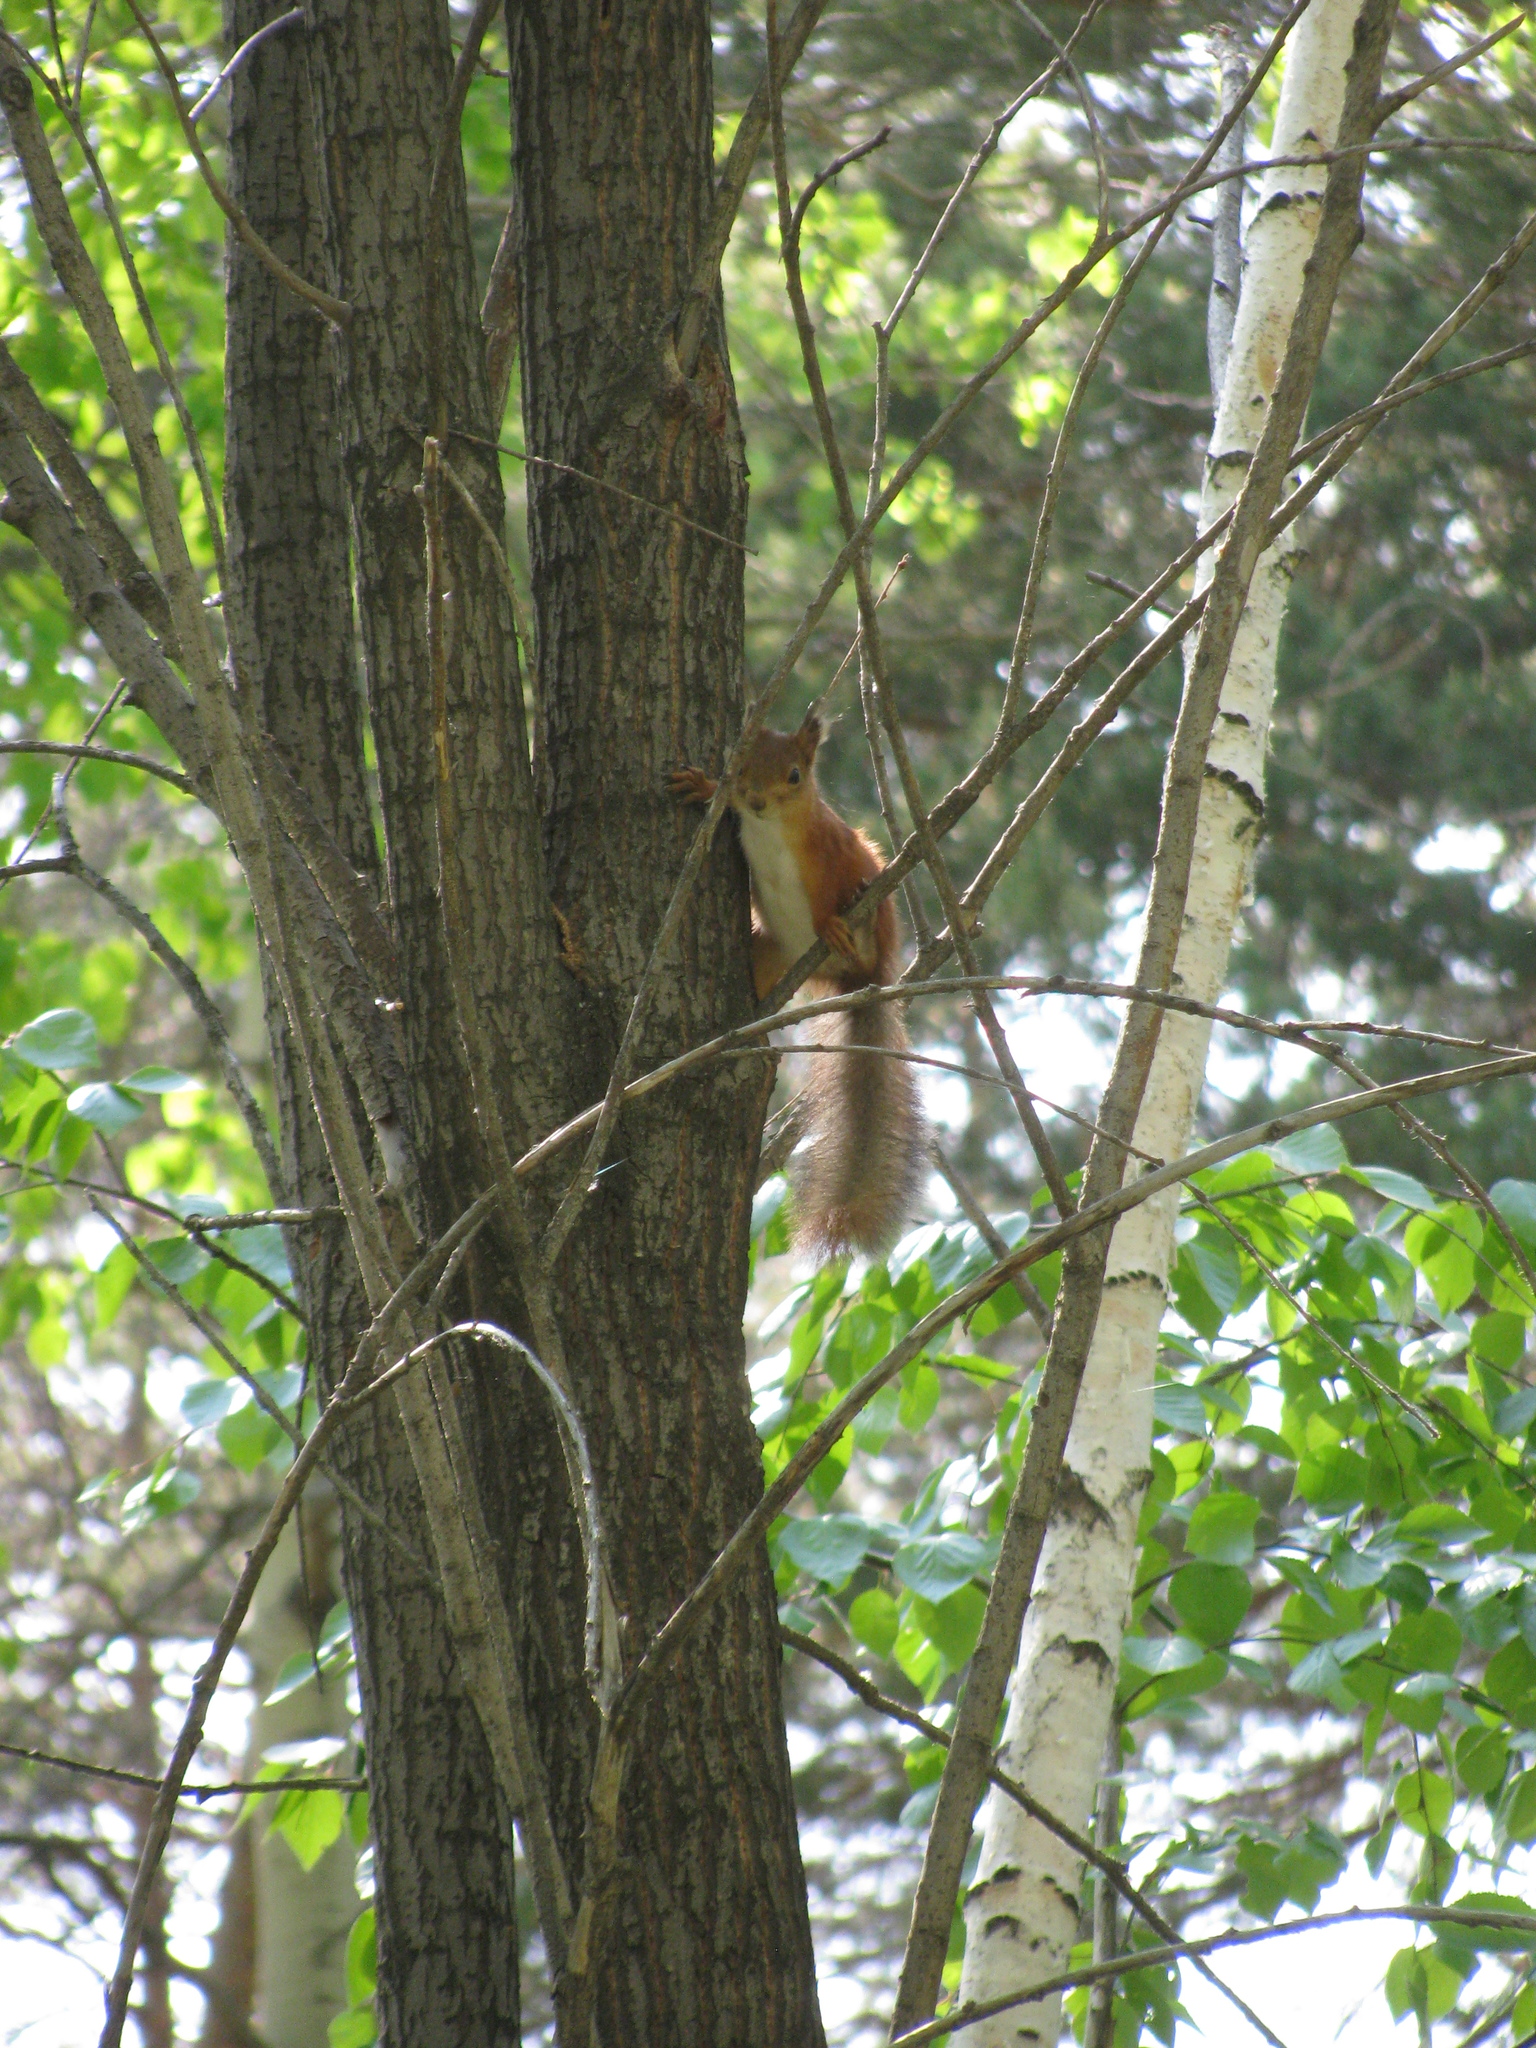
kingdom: Animalia
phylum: Chordata
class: Mammalia
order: Rodentia
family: Sciuridae
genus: Sciurus
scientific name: Sciurus vulgaris
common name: Eurasian red squirrel
